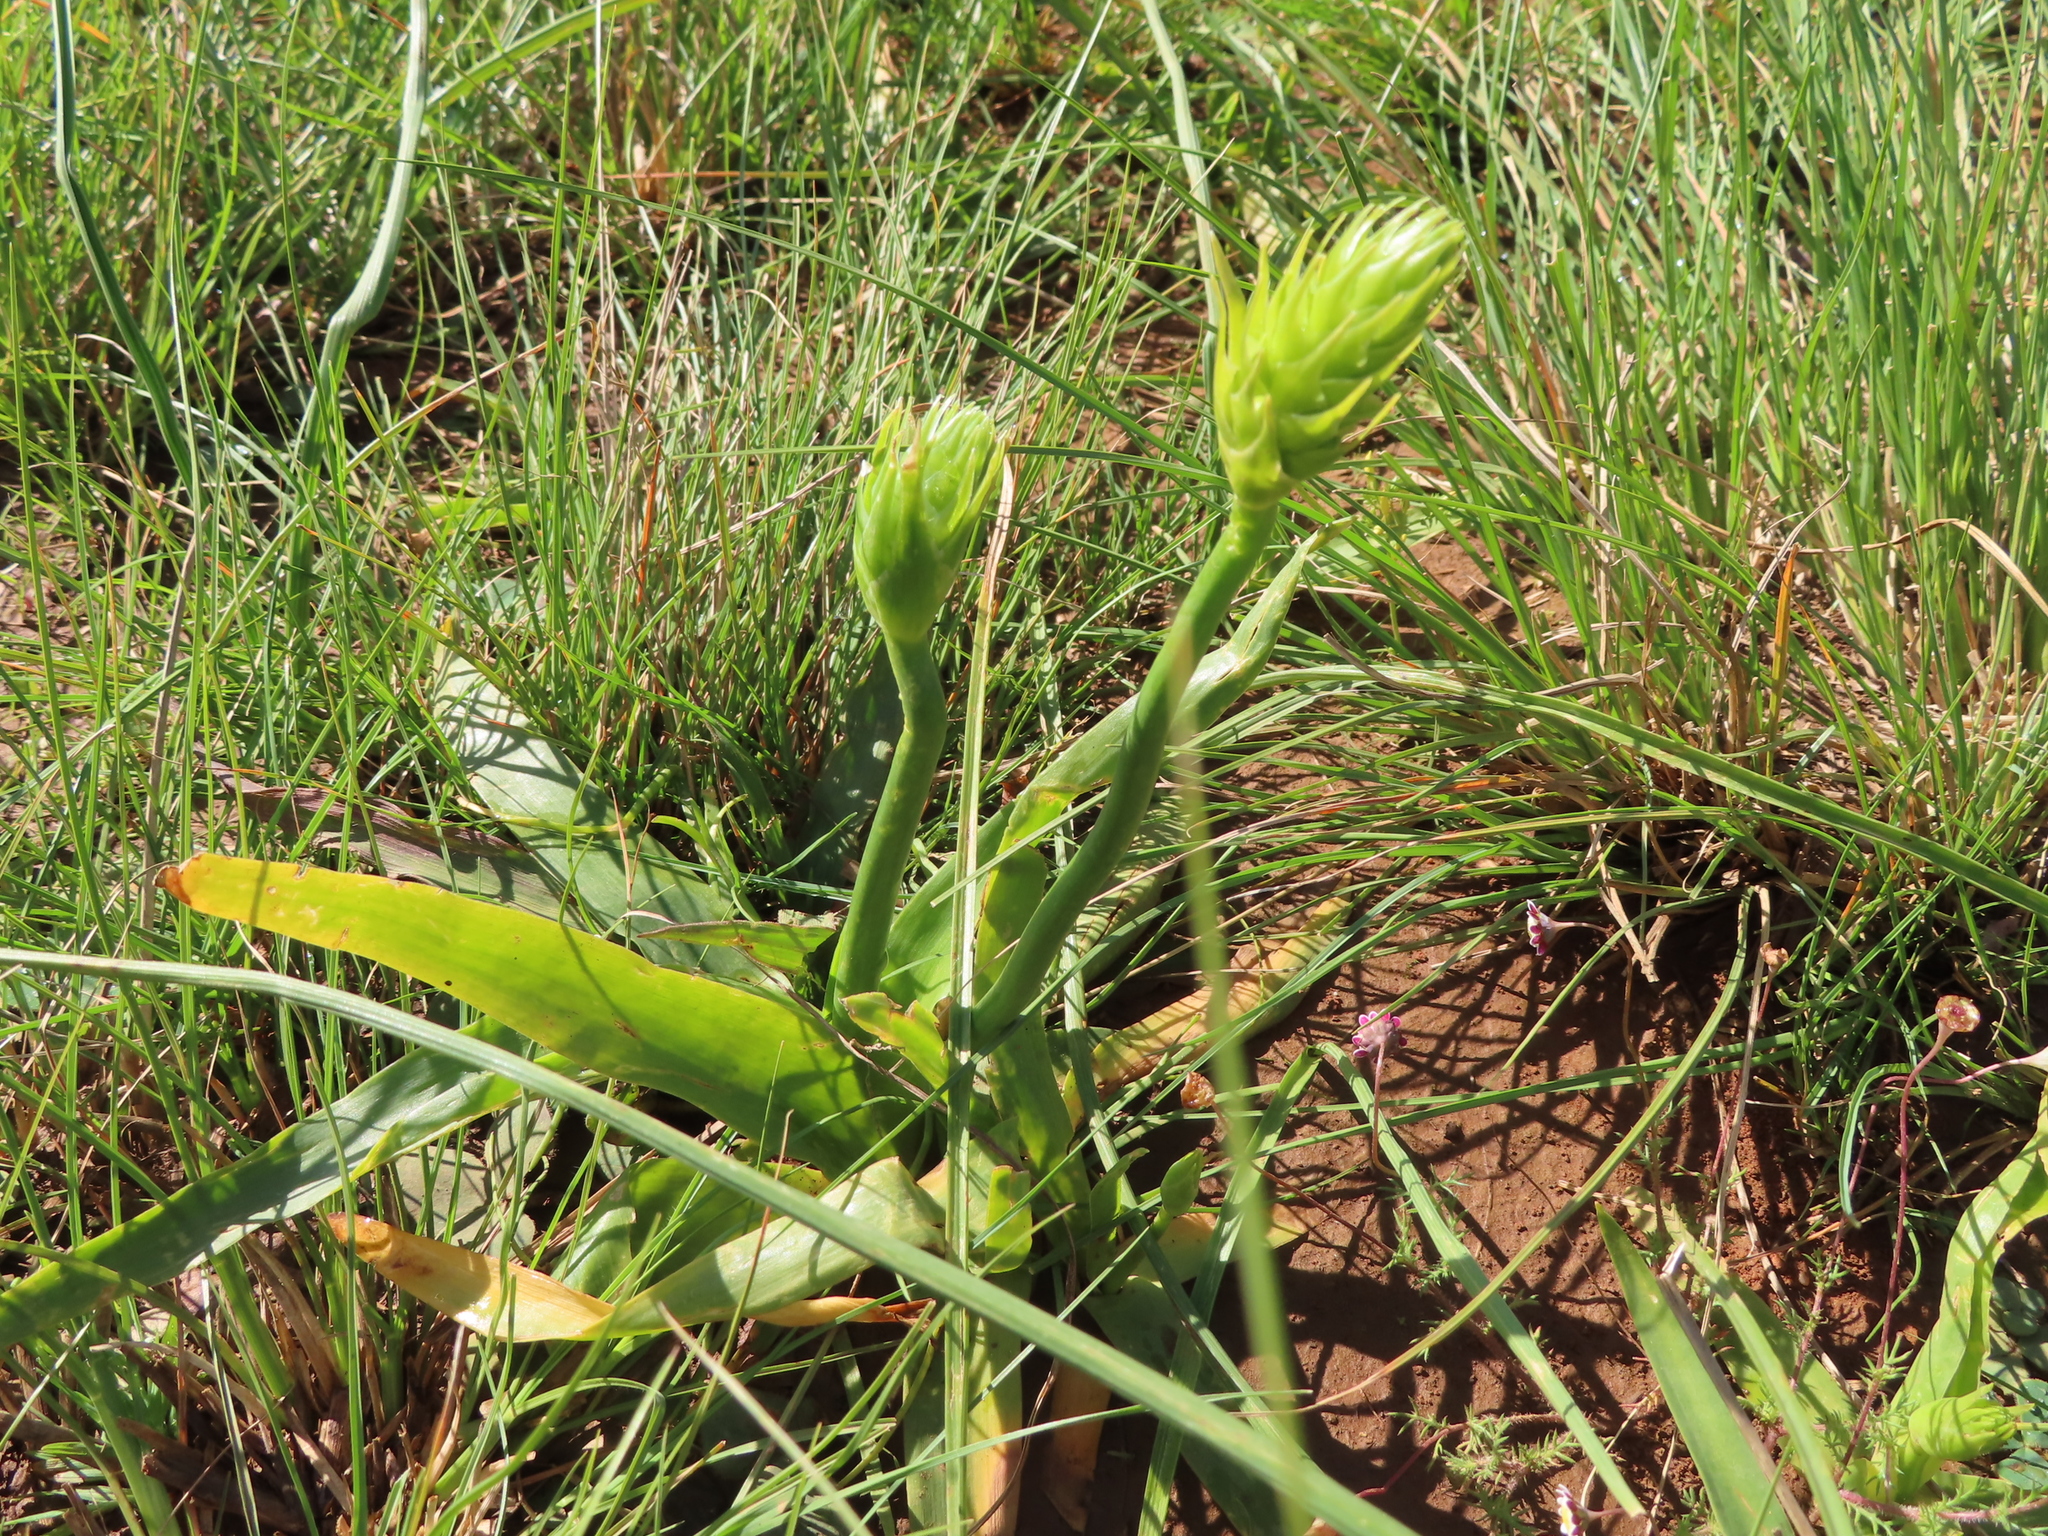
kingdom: Plantae
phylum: Tracheophyta
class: Liliopsida
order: Asparagales
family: Asparagaceae
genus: Ornithogalum
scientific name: Ornithogalum thyrsoides
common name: Chincherinchee
